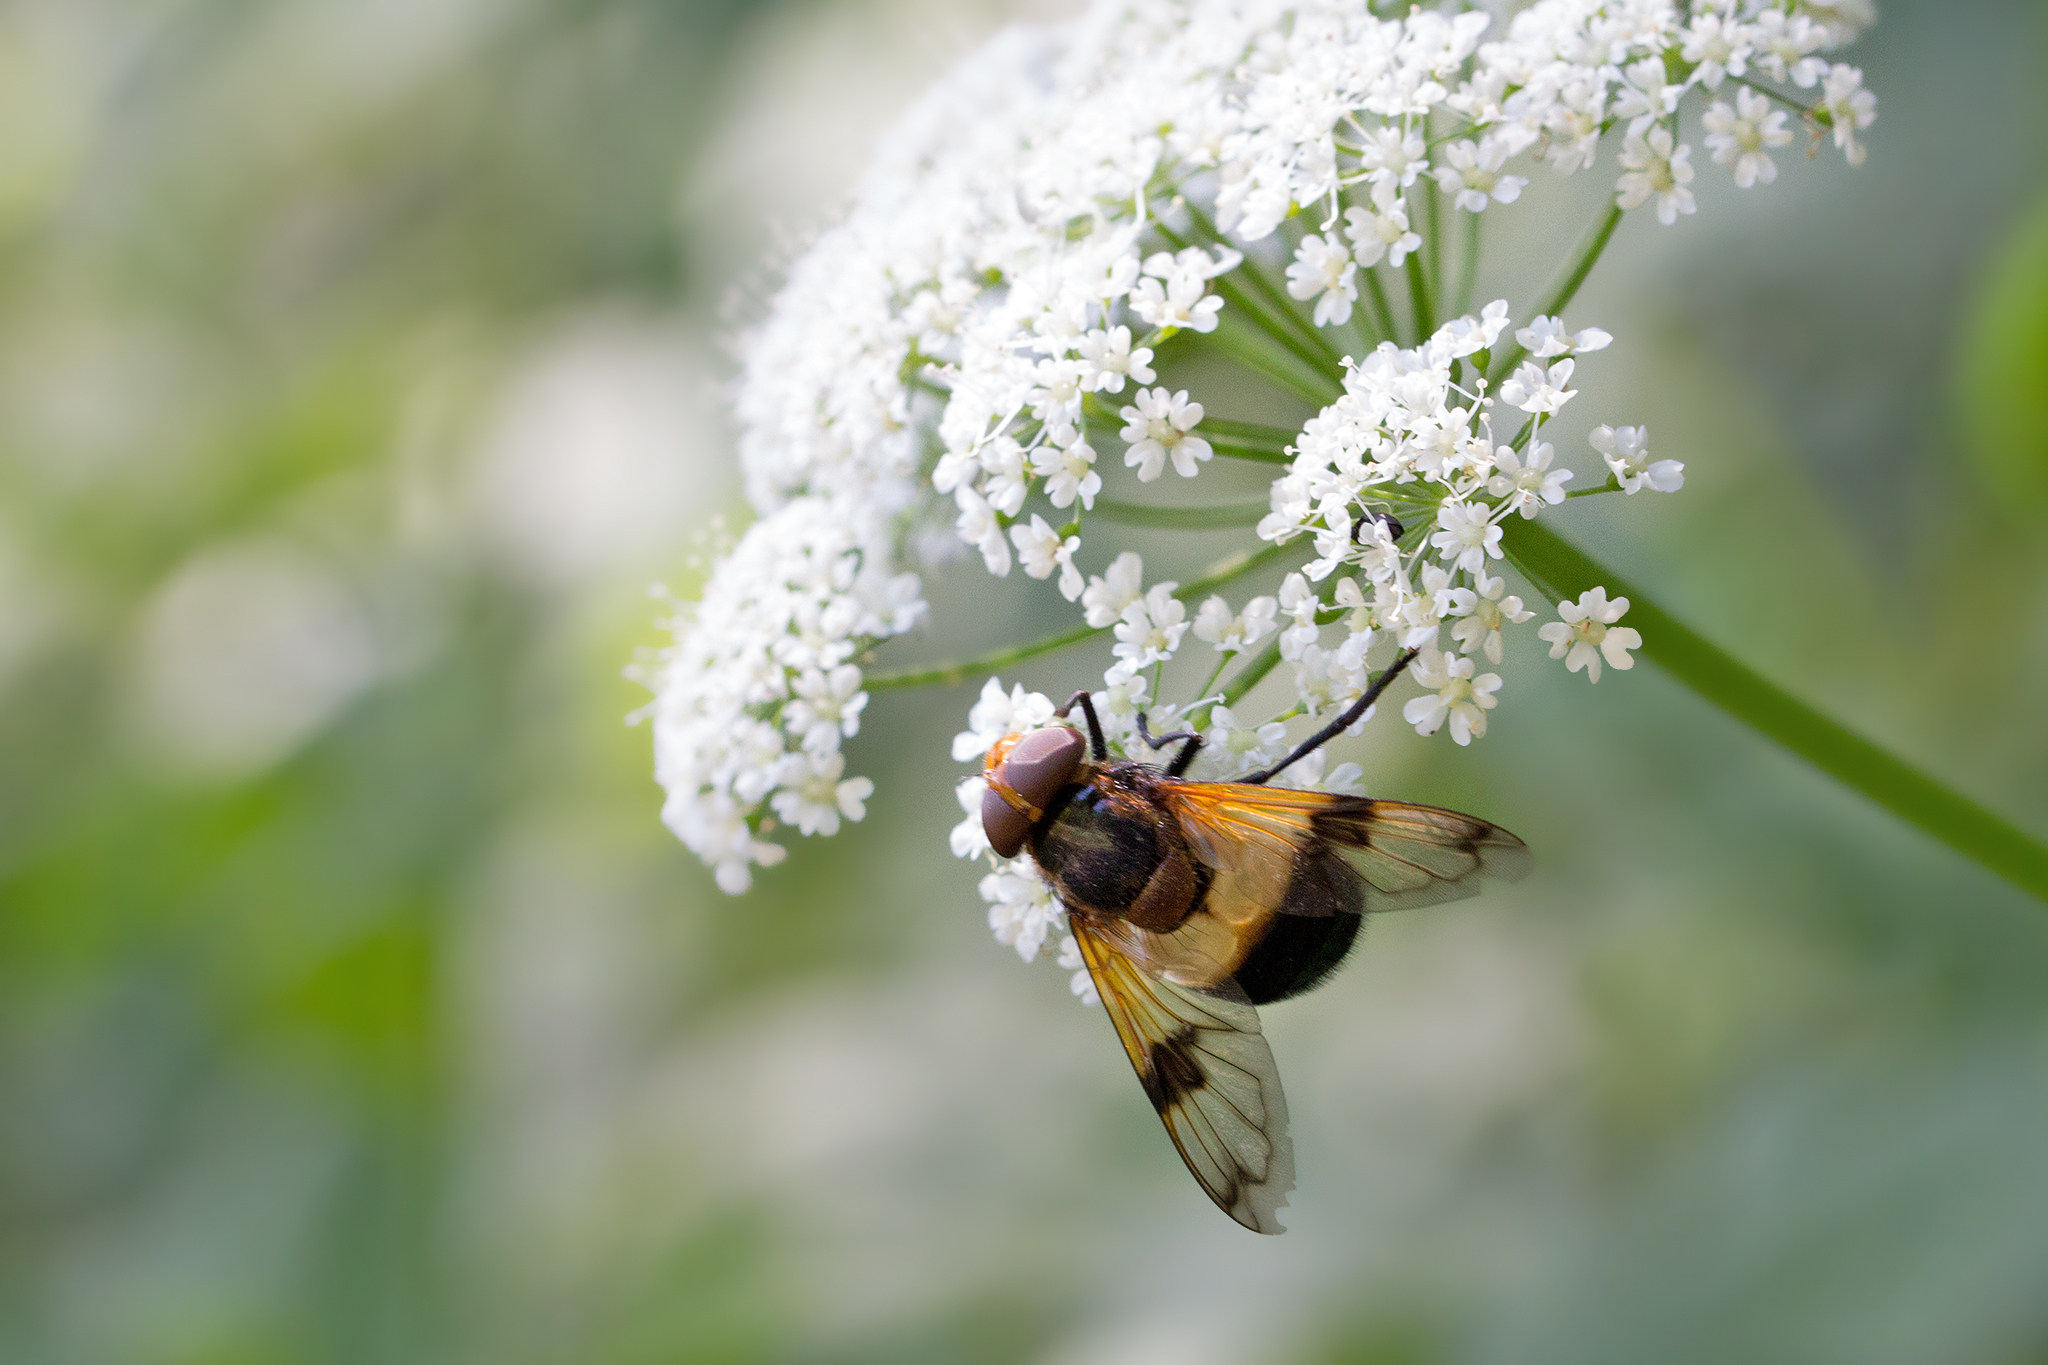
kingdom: Animalia
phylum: Arthropoda
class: Insecta
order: Diptera
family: Syrphidae
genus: Volucella
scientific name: Volucella pellucens
